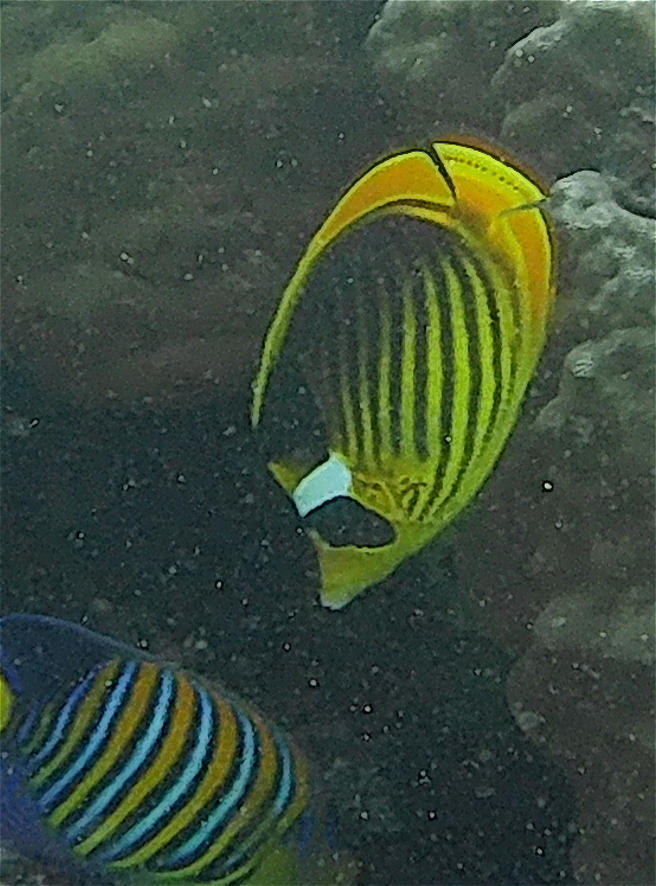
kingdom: Animalia
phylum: Chordata
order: Perciformes
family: Chaetodontidae
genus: Chaetodon
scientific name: Chaetodon fasciatus
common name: Diagonal butterflyfish
